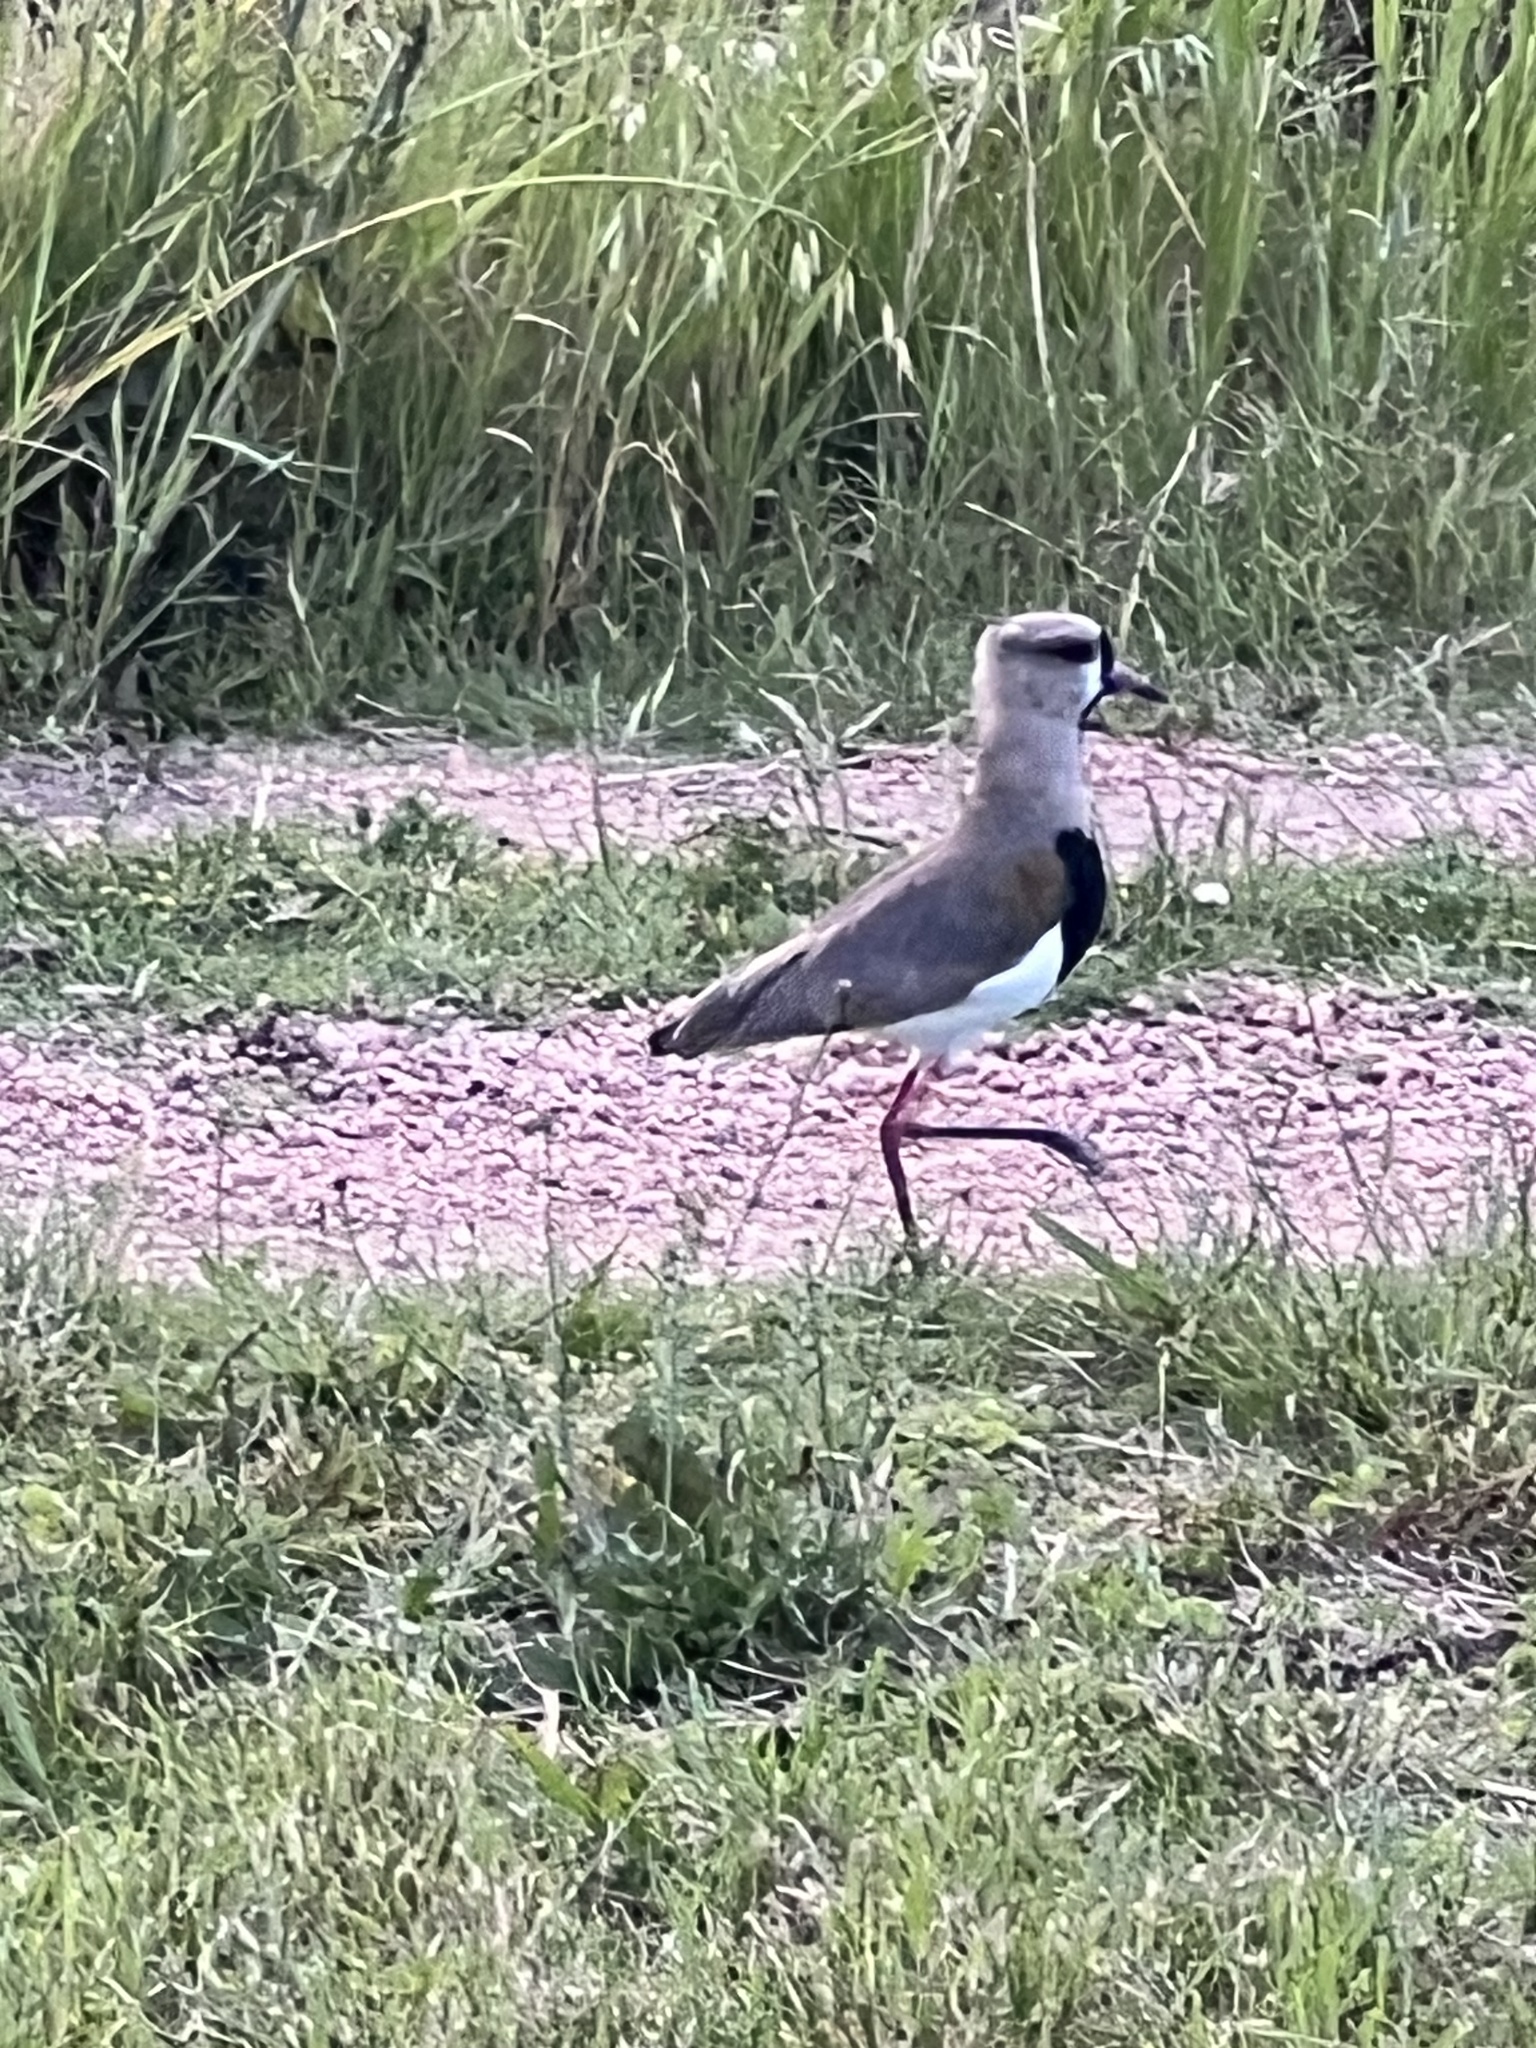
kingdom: Animalia
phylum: Chordata
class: Aves
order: Charadriiformes
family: Charadriidae
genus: Vanellus
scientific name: Vanellus chilensis
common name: Southern lapwing
